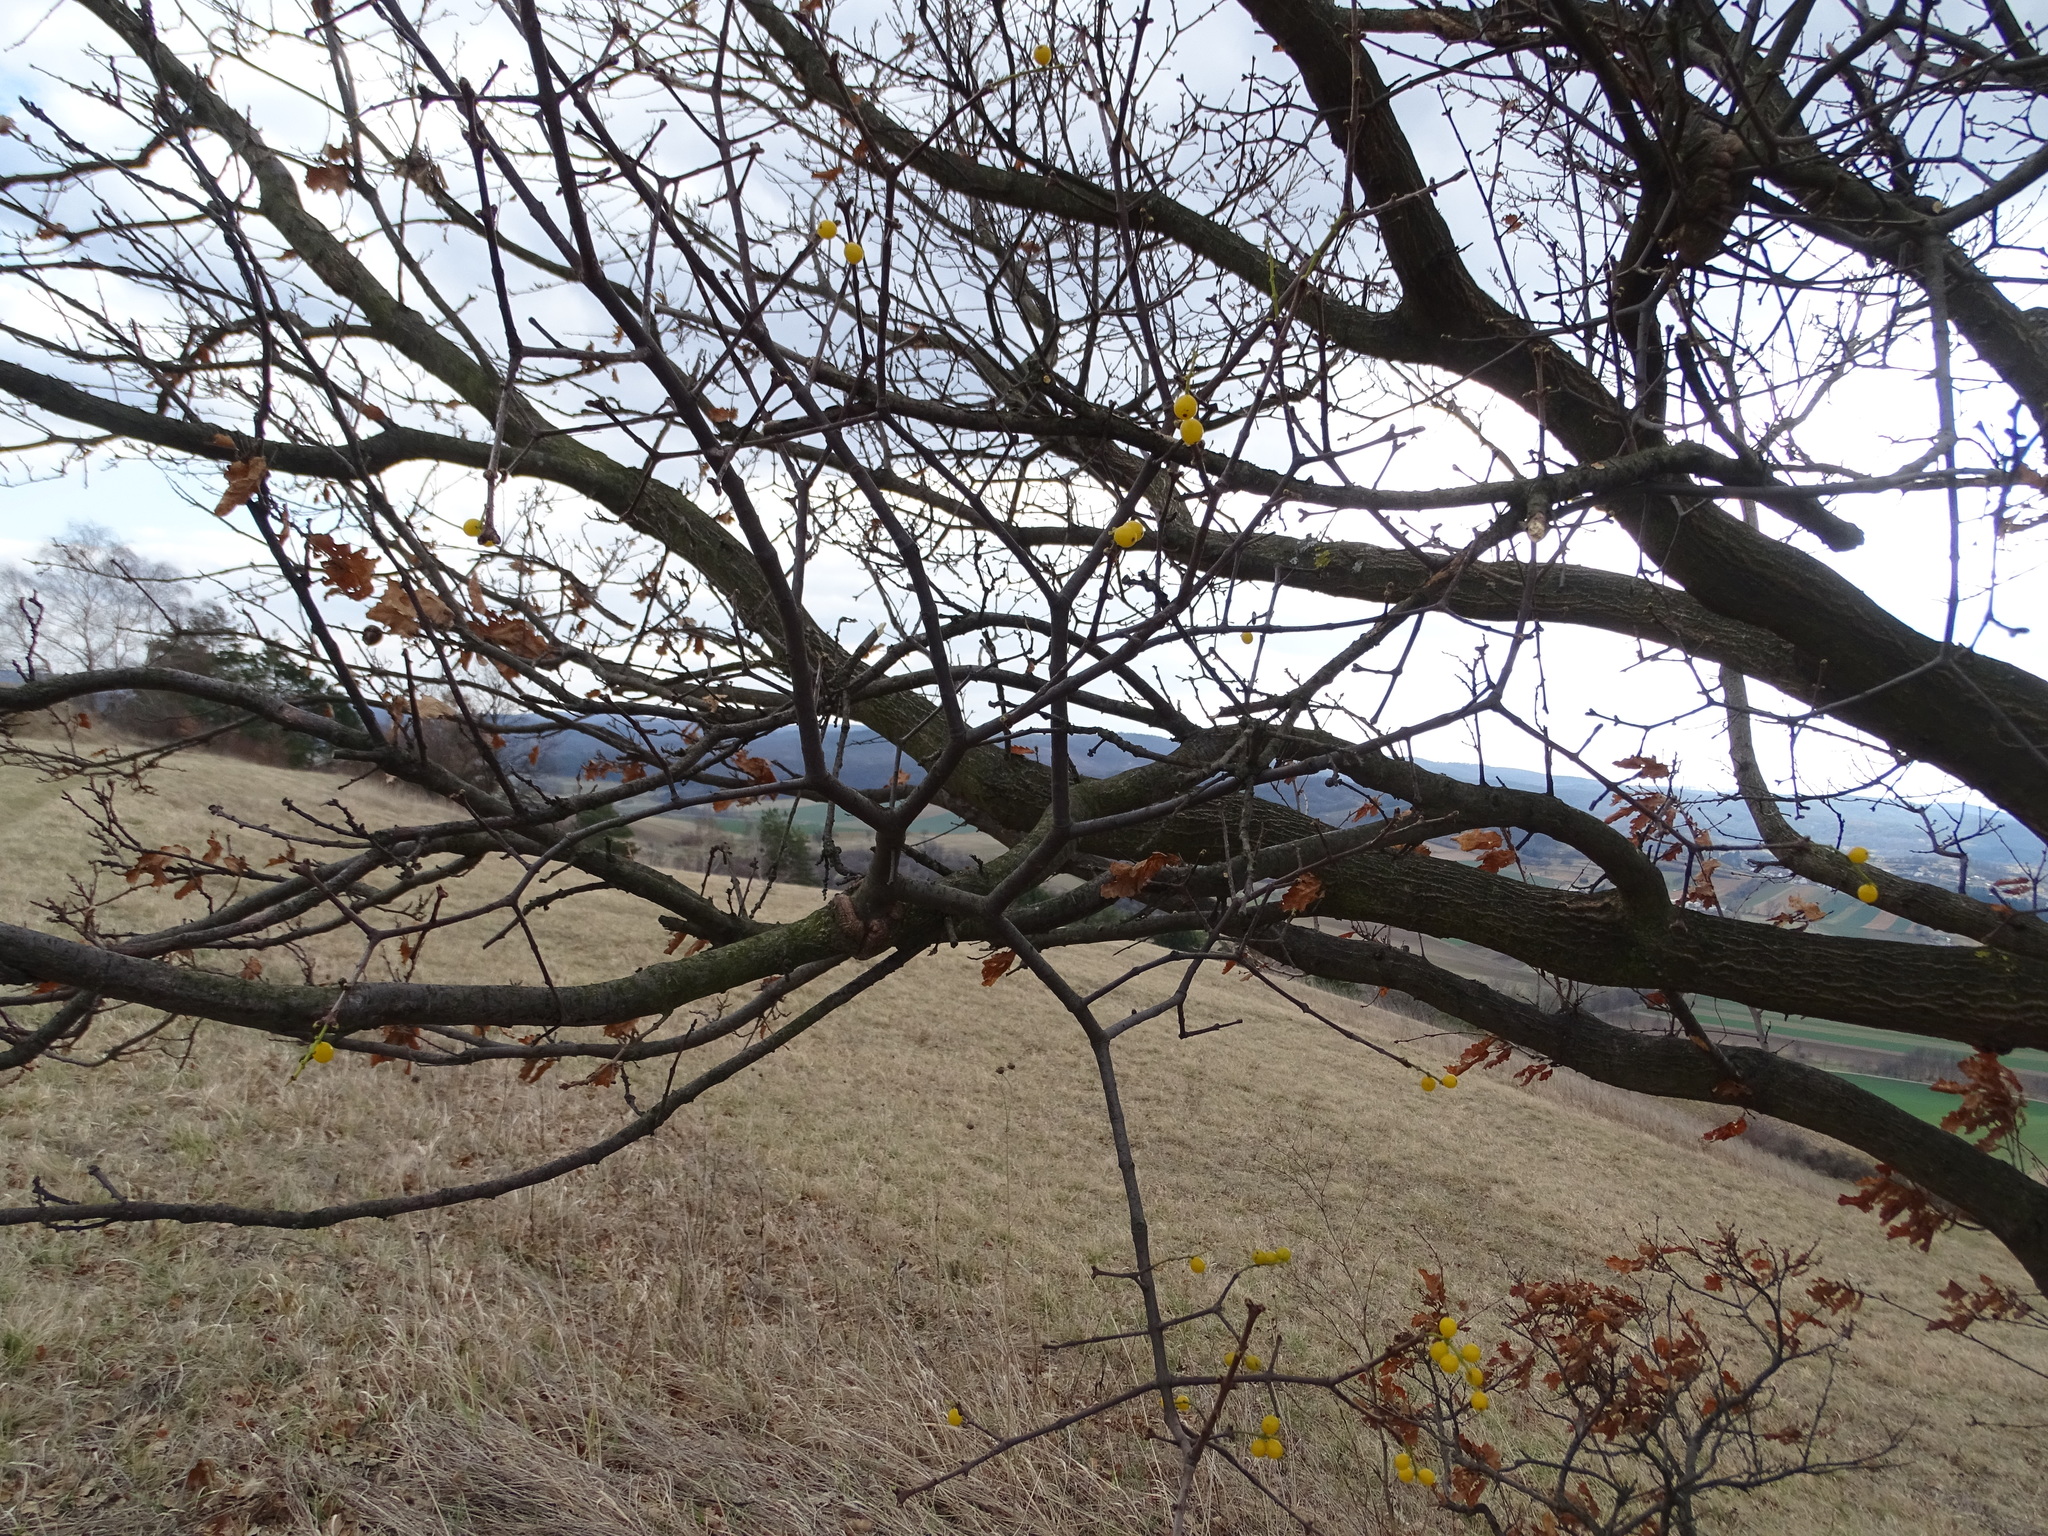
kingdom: Plantae
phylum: Tracheophyta
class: Magnoliopsida
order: Santalales
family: Loranthaceae
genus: Loranthus
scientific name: Loranthus europaeus
